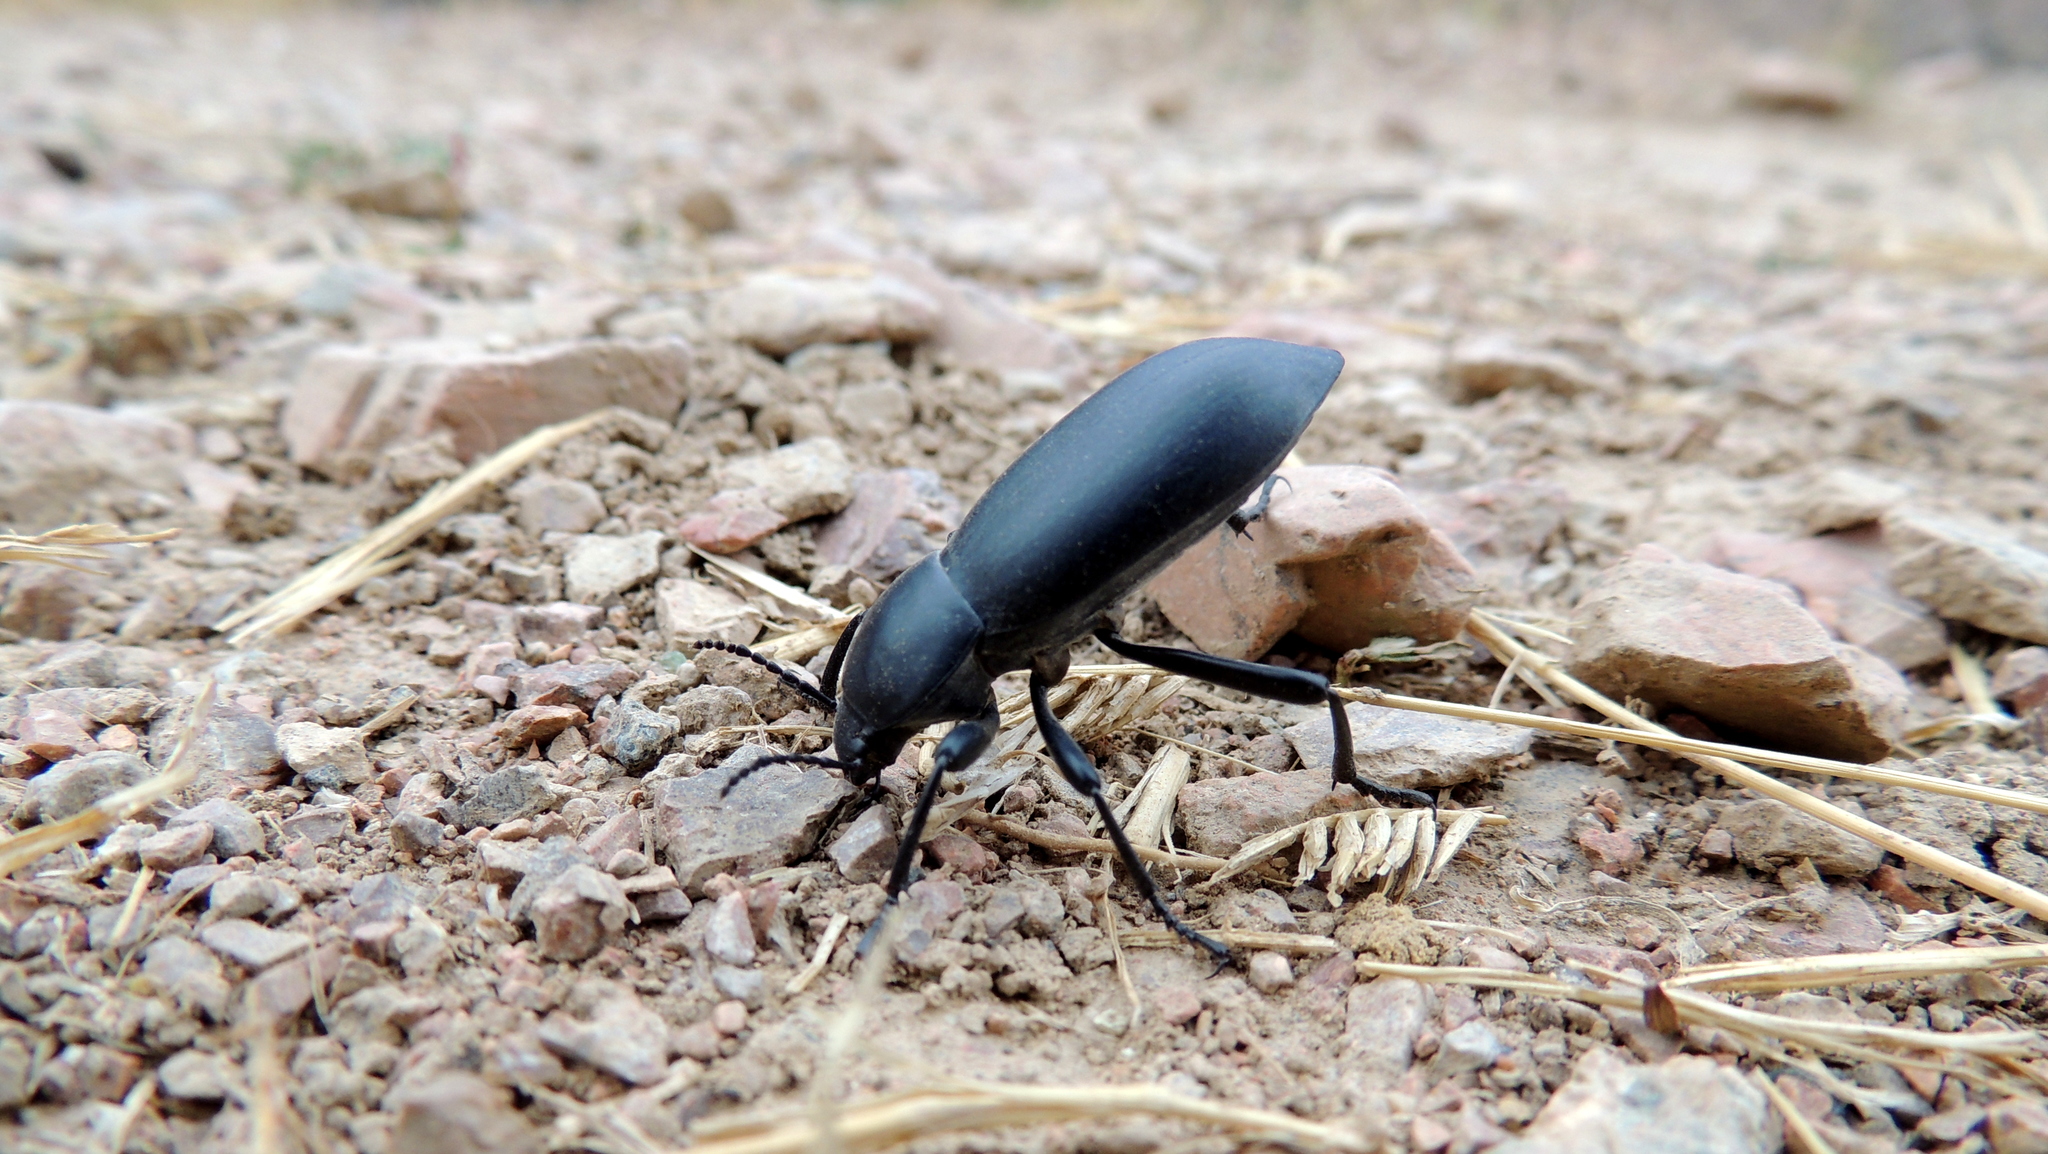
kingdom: Animalia
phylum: Arthropoda
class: Insecta
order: Coleoptera
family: Tenebrionidae
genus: Dila
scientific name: Dila
